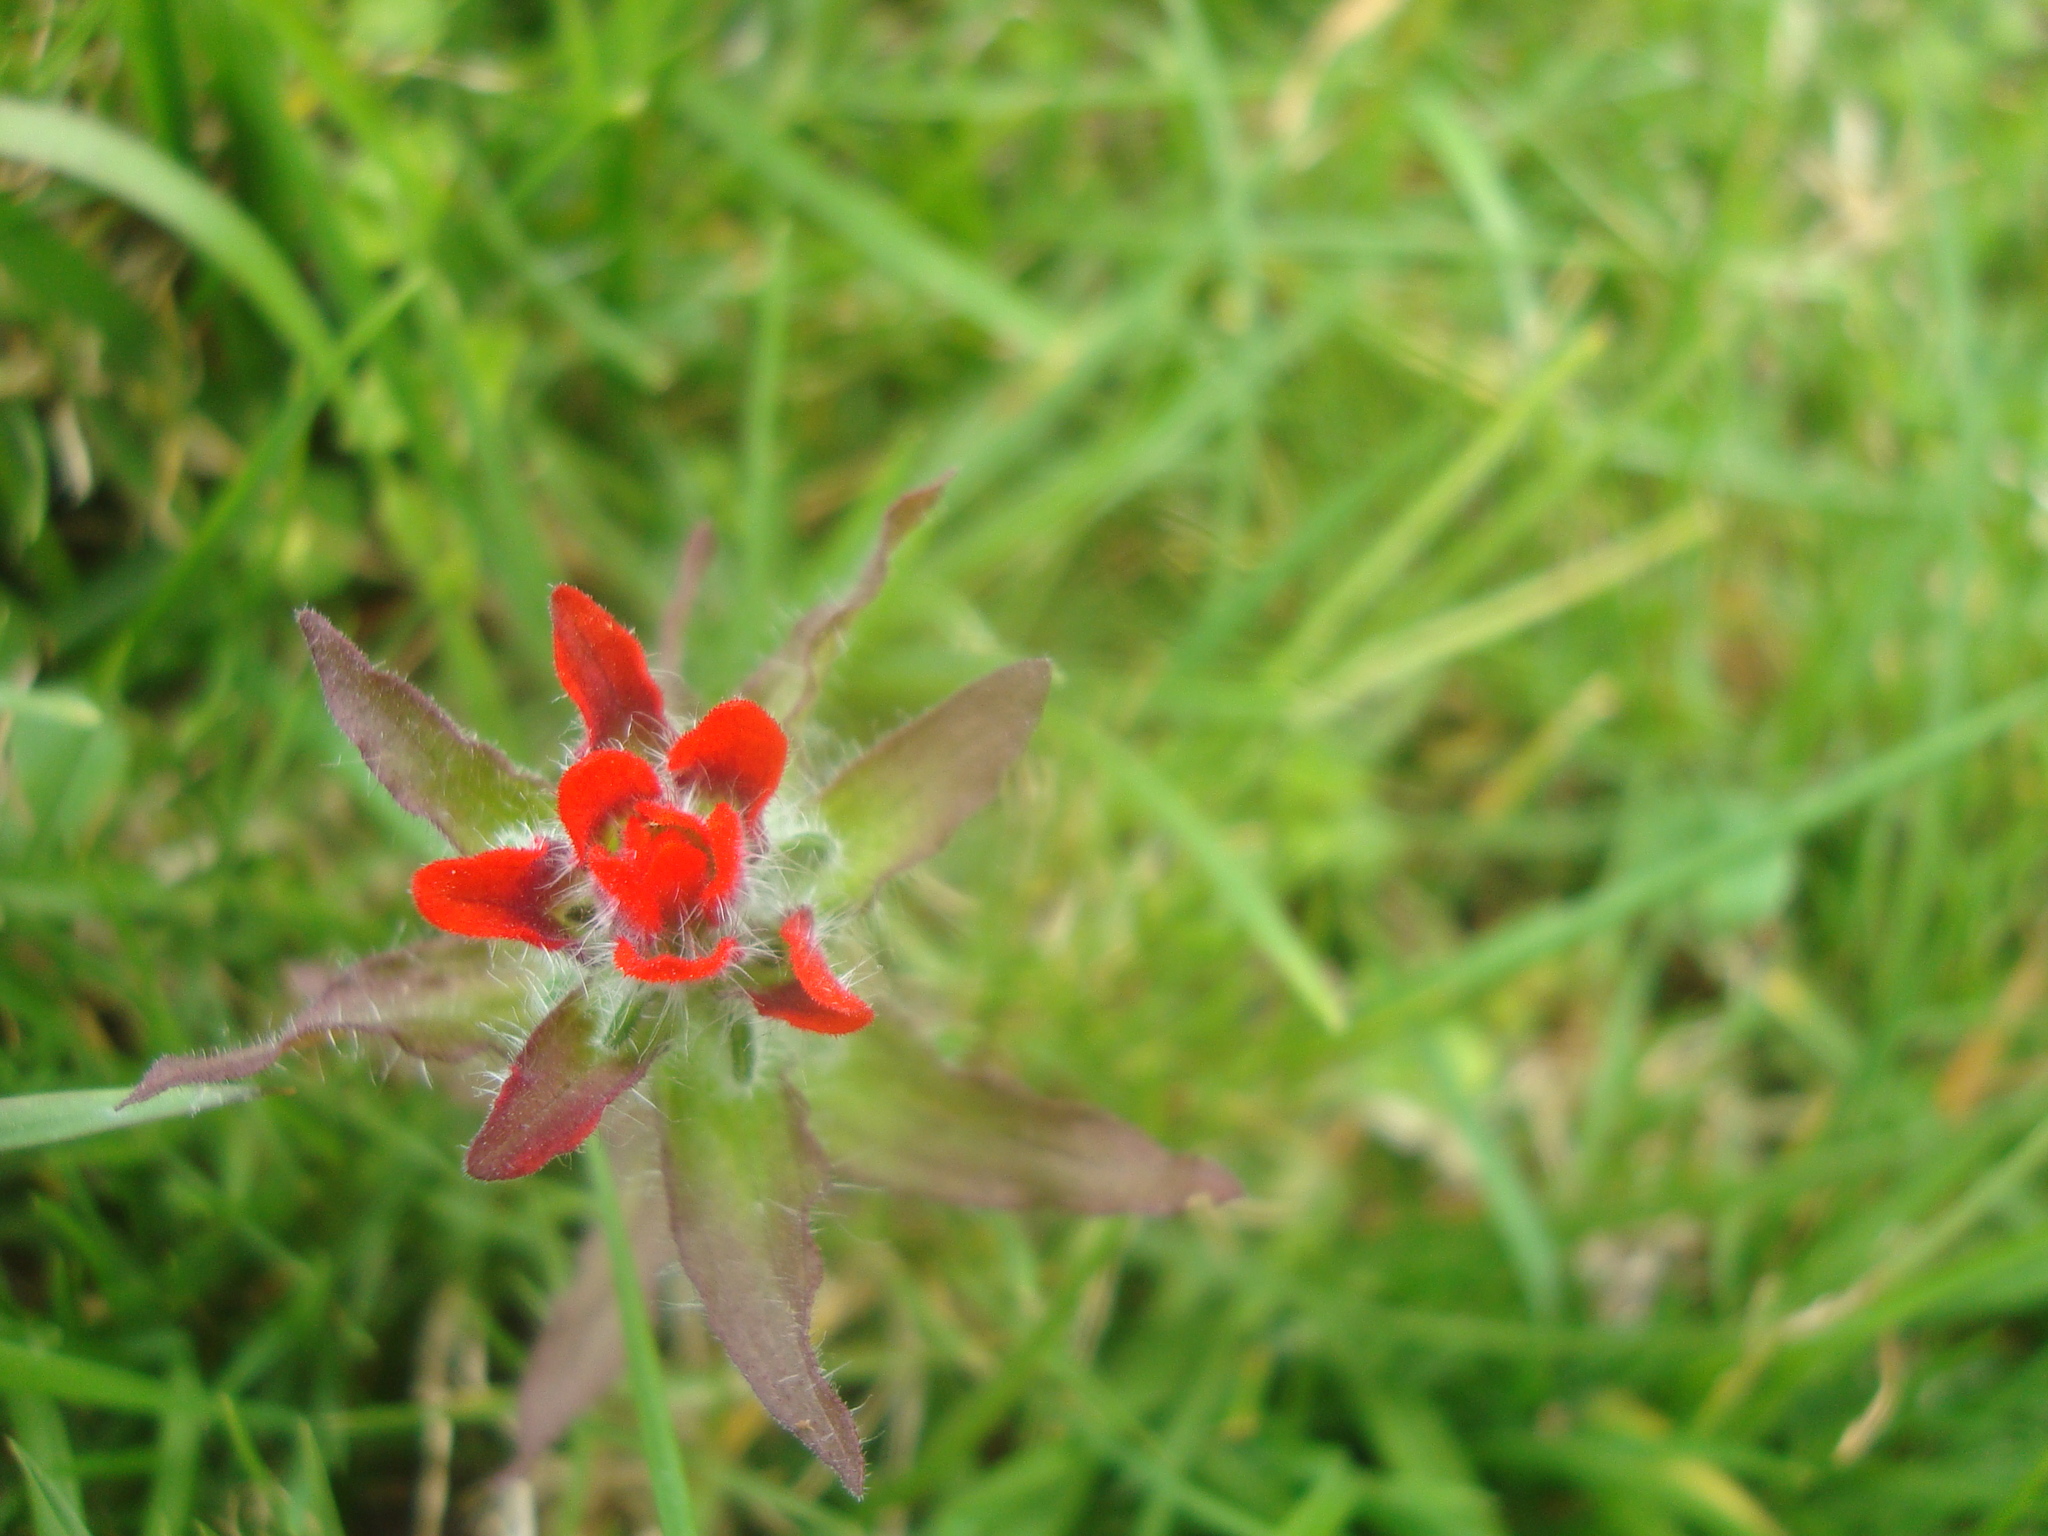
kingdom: Plantae
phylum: Tracheophyta
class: Magnoliopsida
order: Lamiales
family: Orobanchaceae
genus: Castilleja
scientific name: Castilleja arvensis
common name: Indian paintbrush
